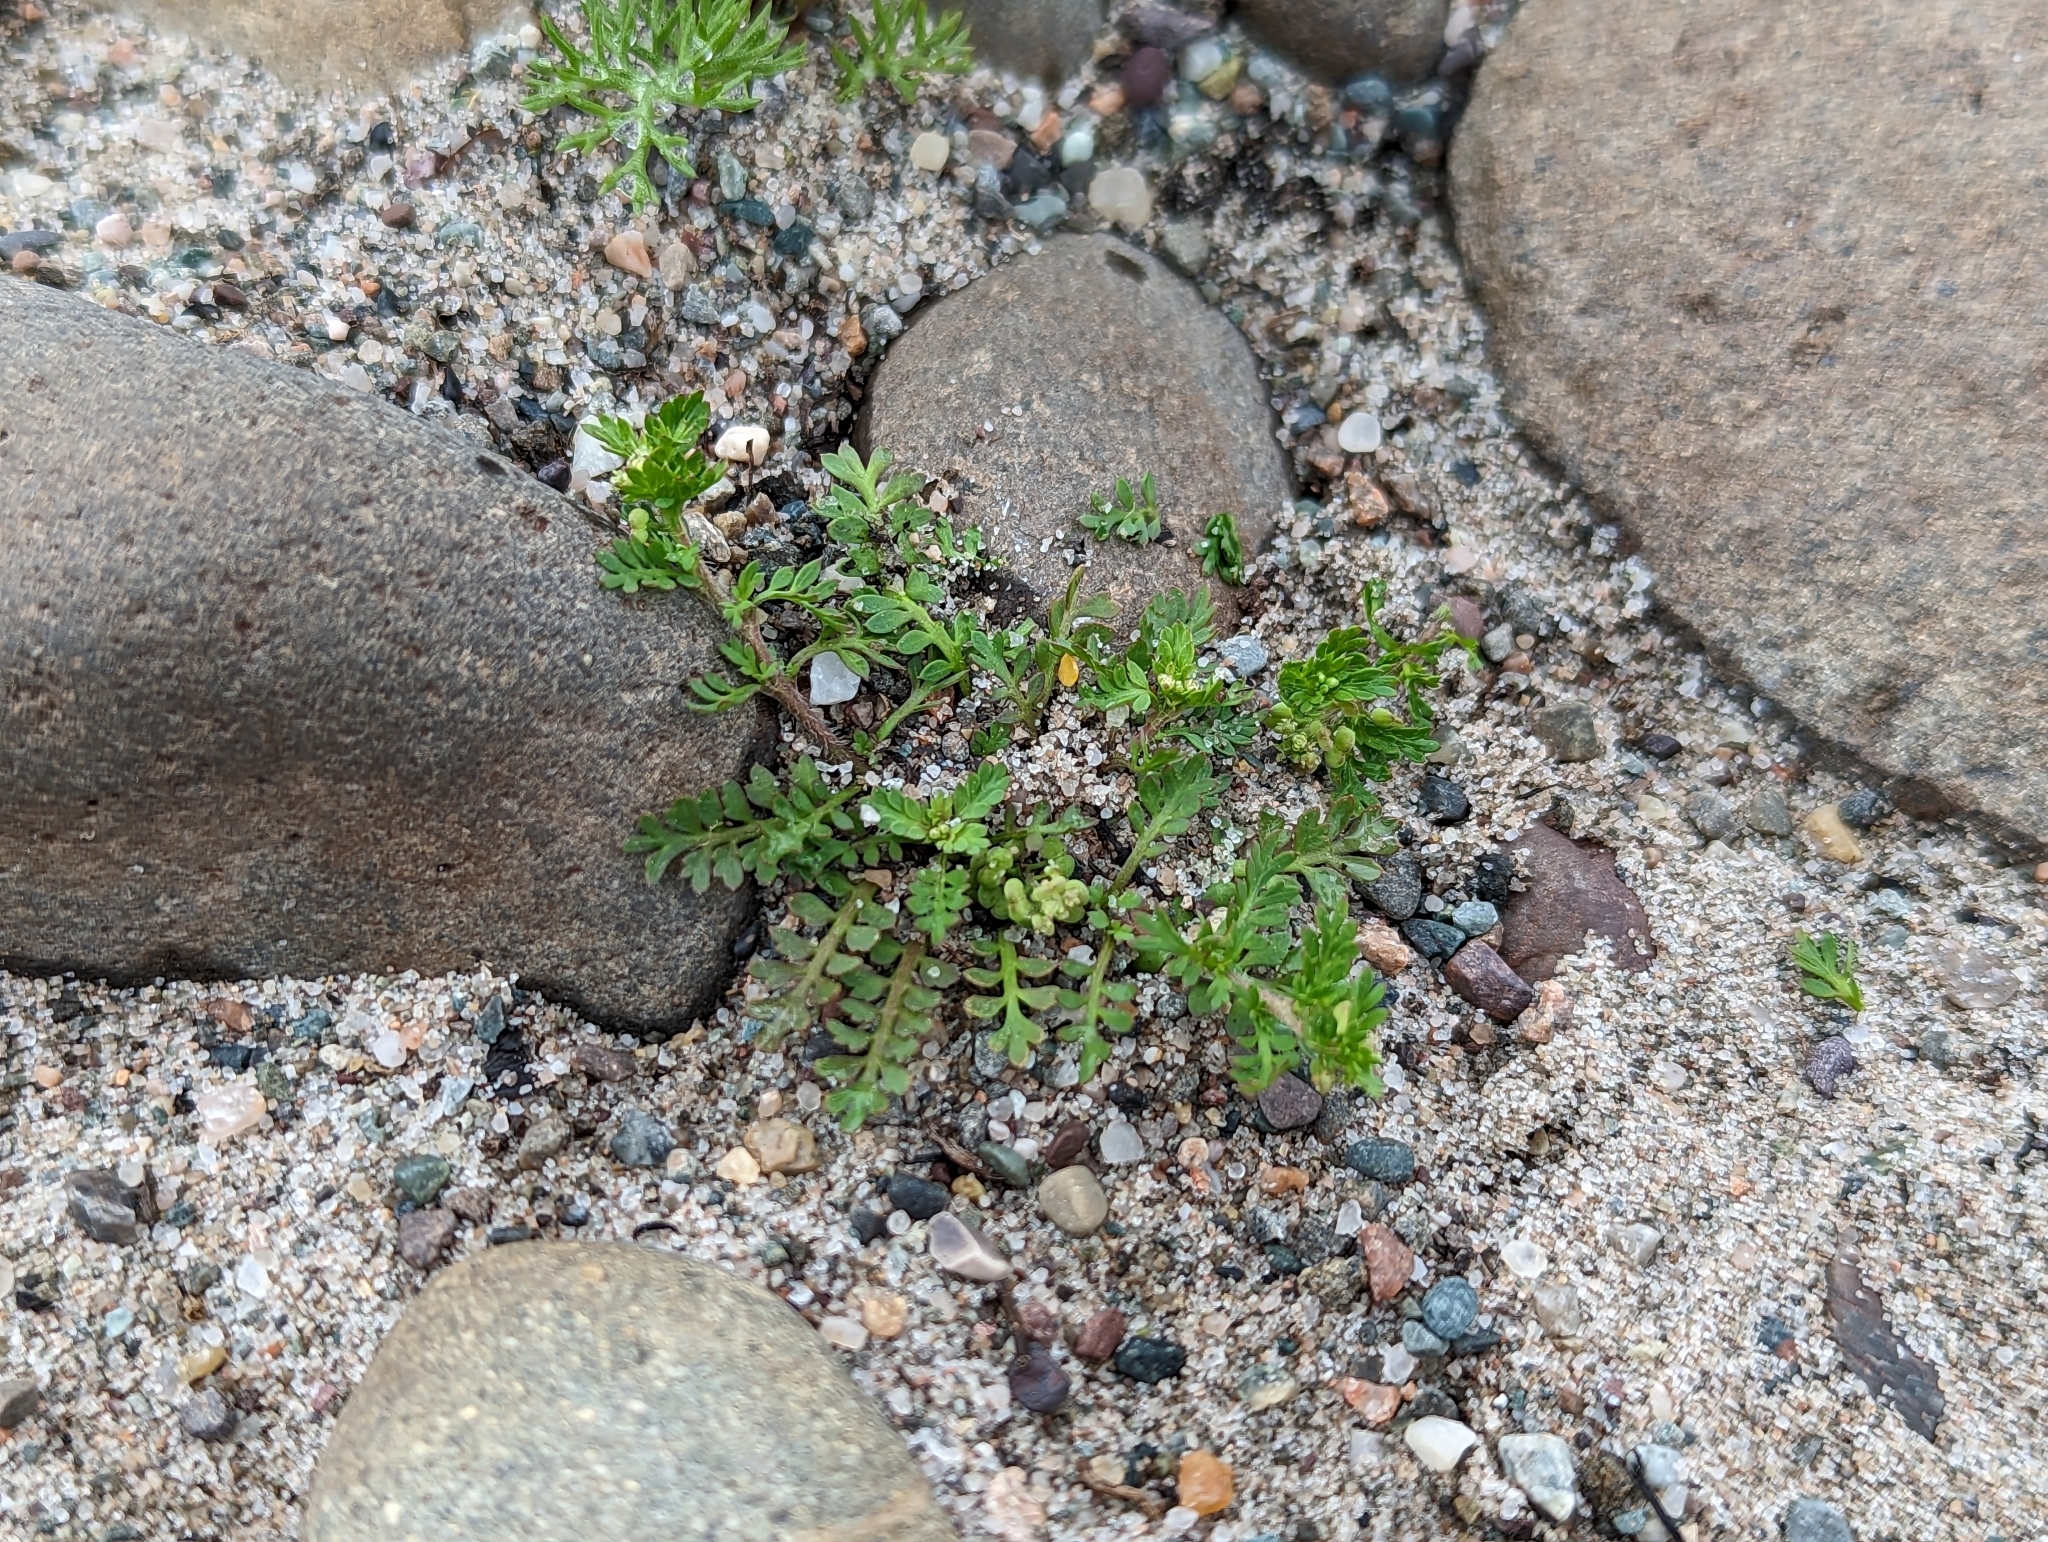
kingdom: Plantae
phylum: Tracheophyta
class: Magnoliopsida
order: Brassicales
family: Brassicaceae
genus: Lepidium
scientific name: Lepidium didymum
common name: Lesser swinecress
